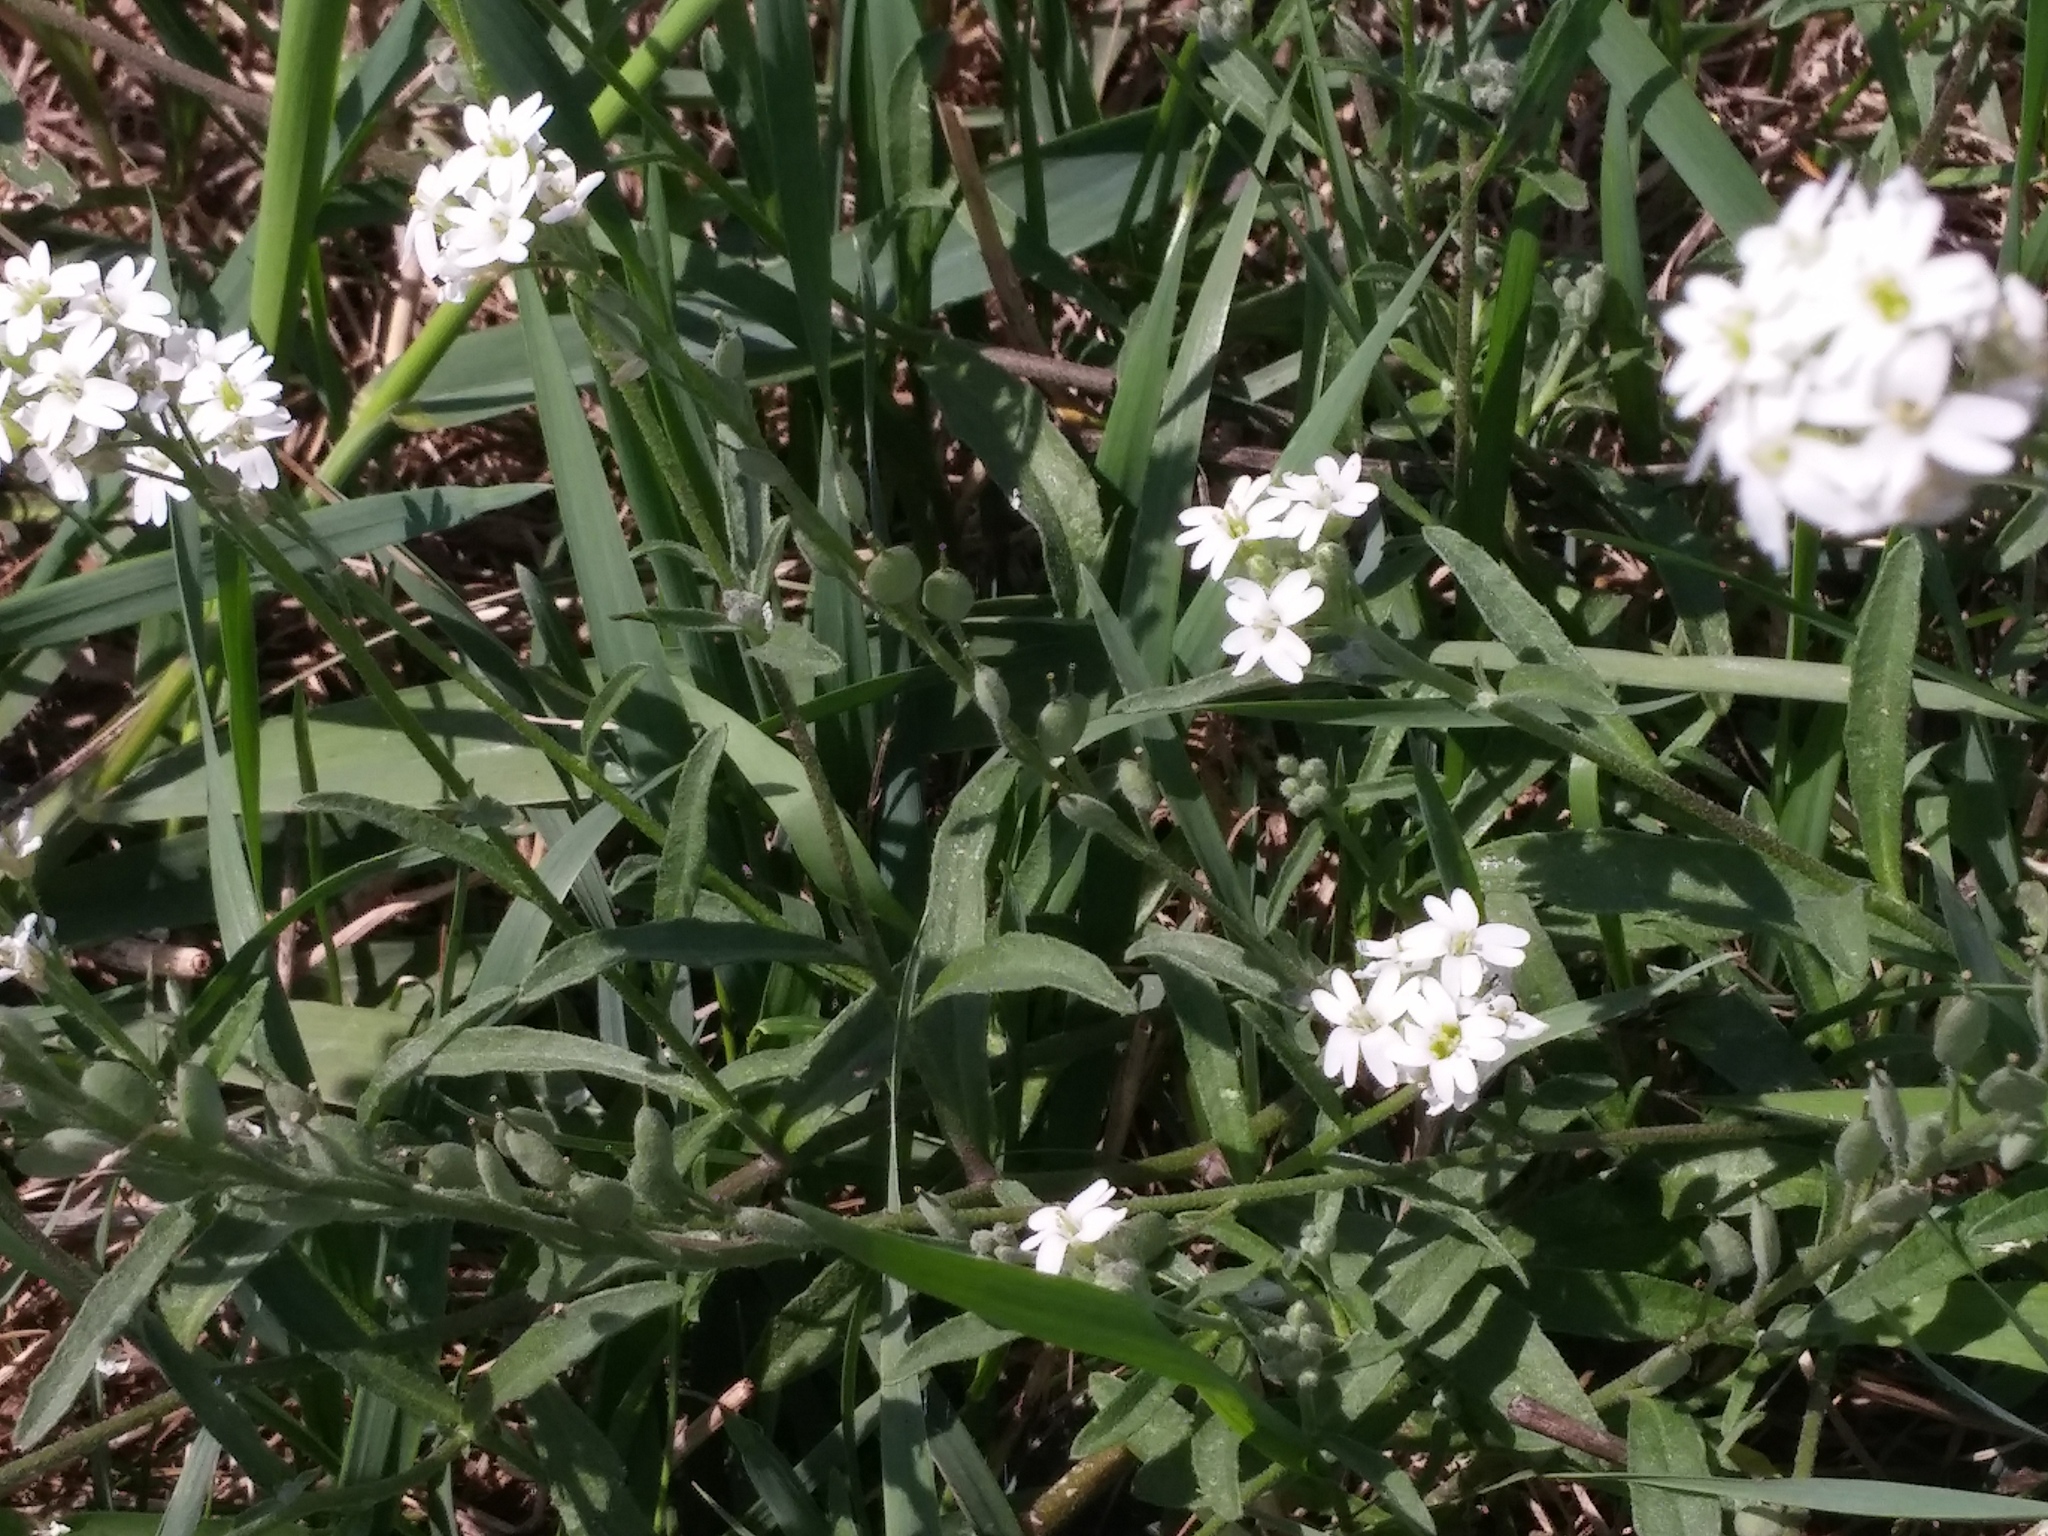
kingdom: Plantae
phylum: Tracheophyta
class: Magnoliopsida
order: Brassicales
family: Brassicaceae
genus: Berteroa
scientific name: Berteroa incana
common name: Hoary alison
